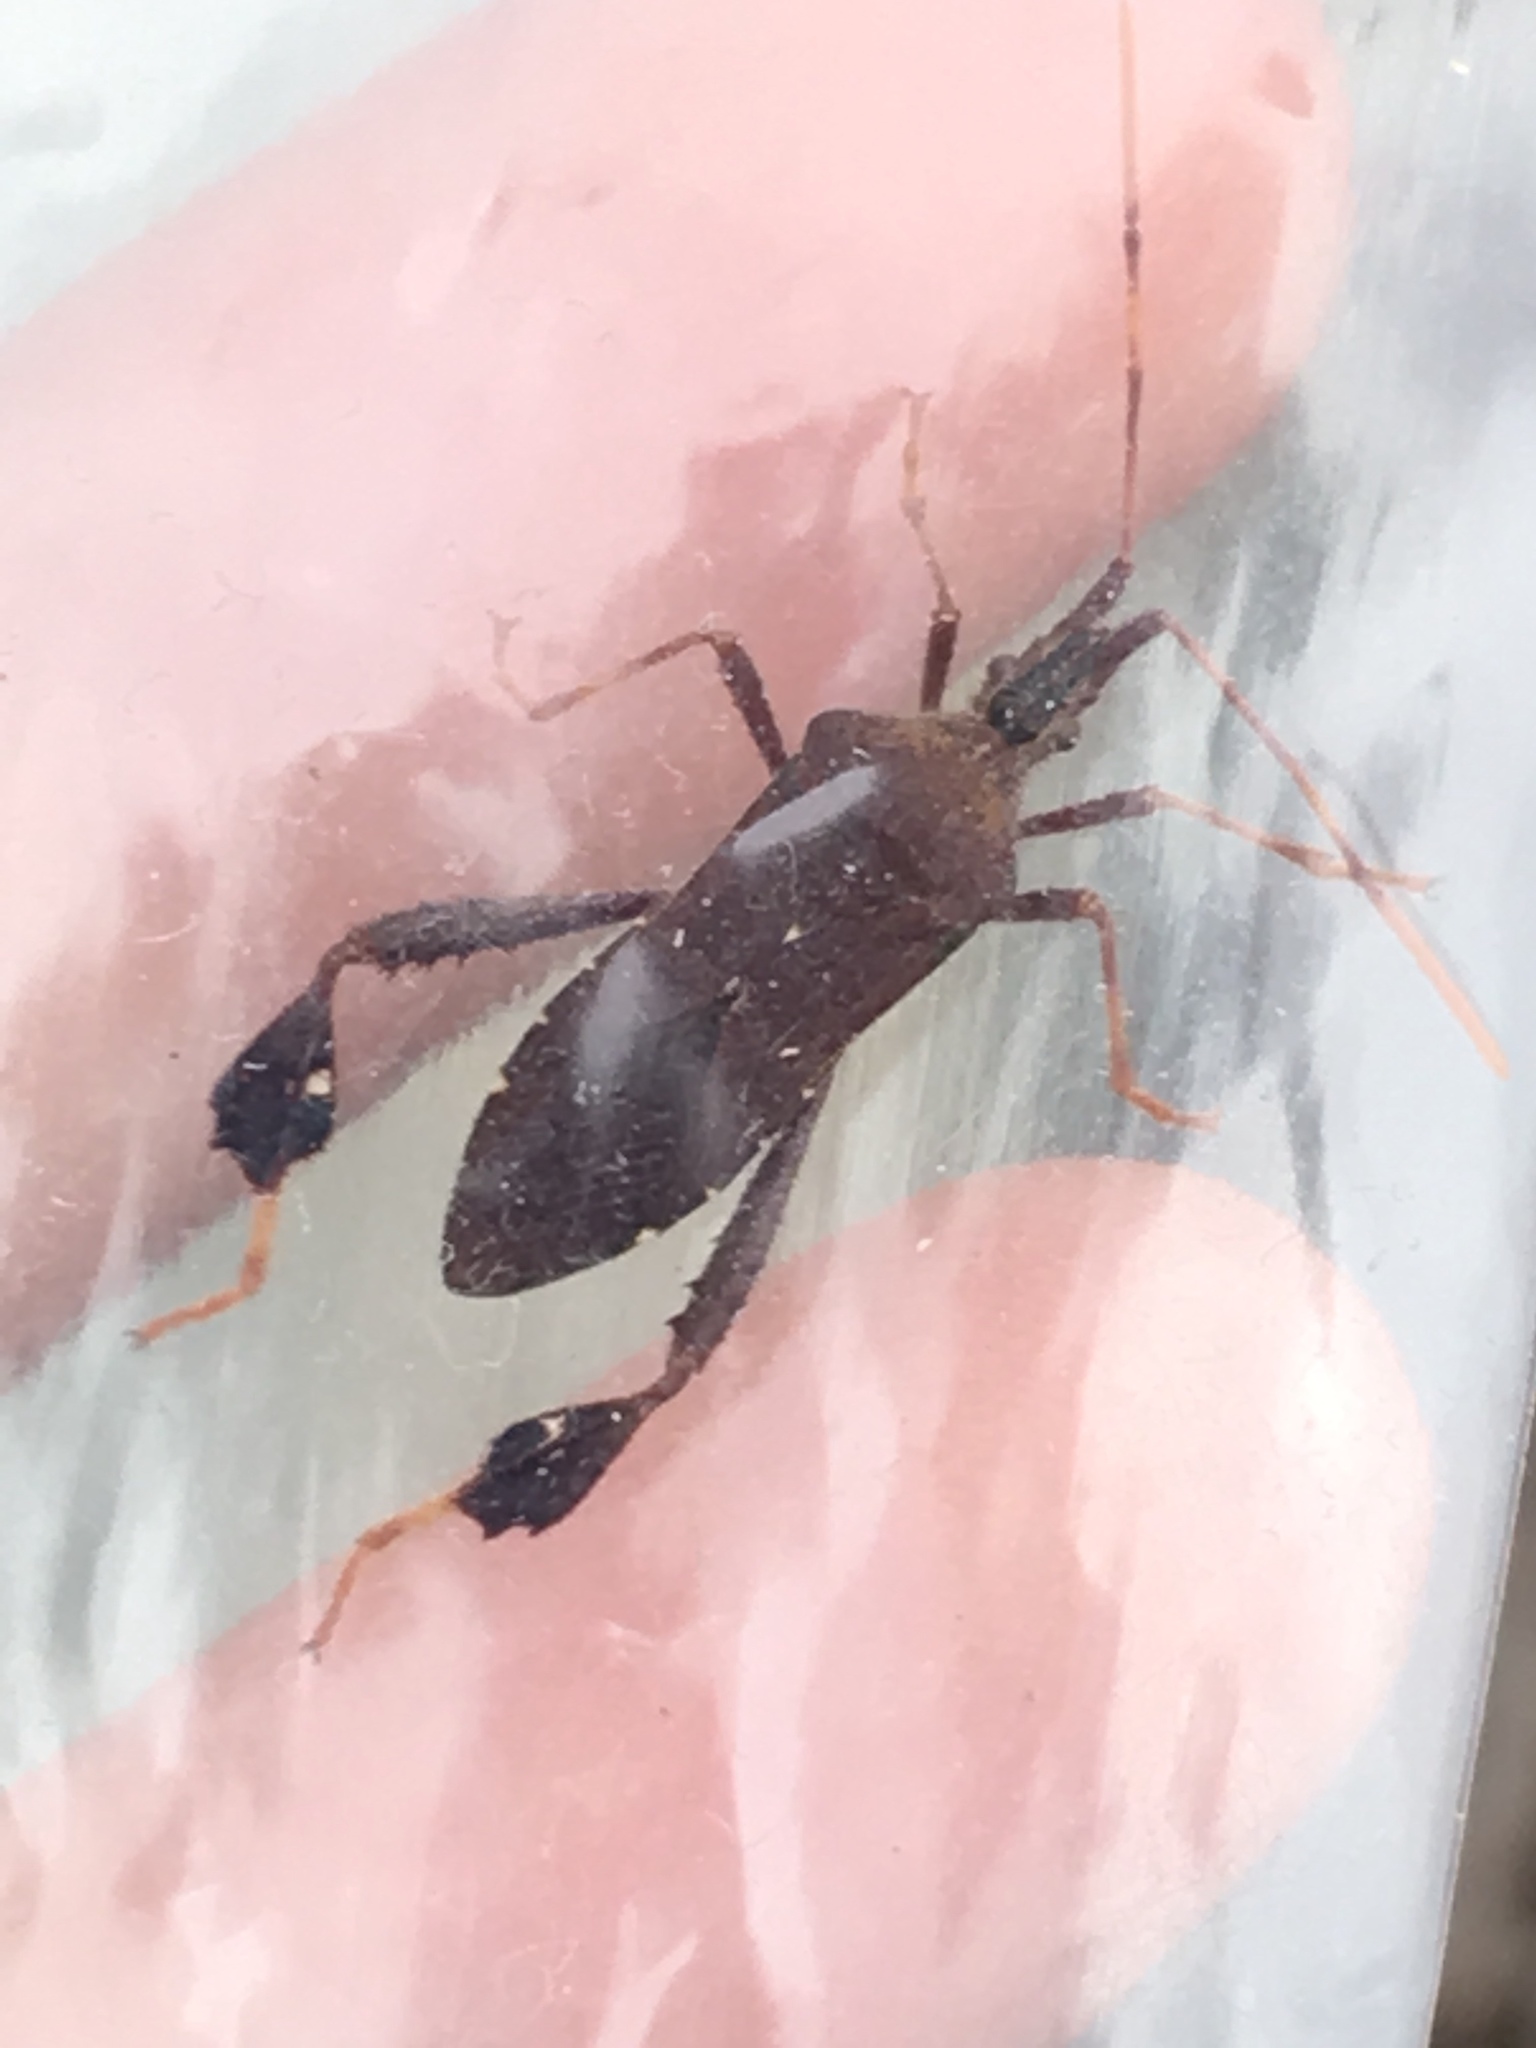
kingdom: Animalia
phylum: Arthropoda
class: Insecta
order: Hemiptera
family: Coreidae
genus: Leptoglossus
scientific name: Leptoglossus oppositus
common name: Northern leaf-footed bug
